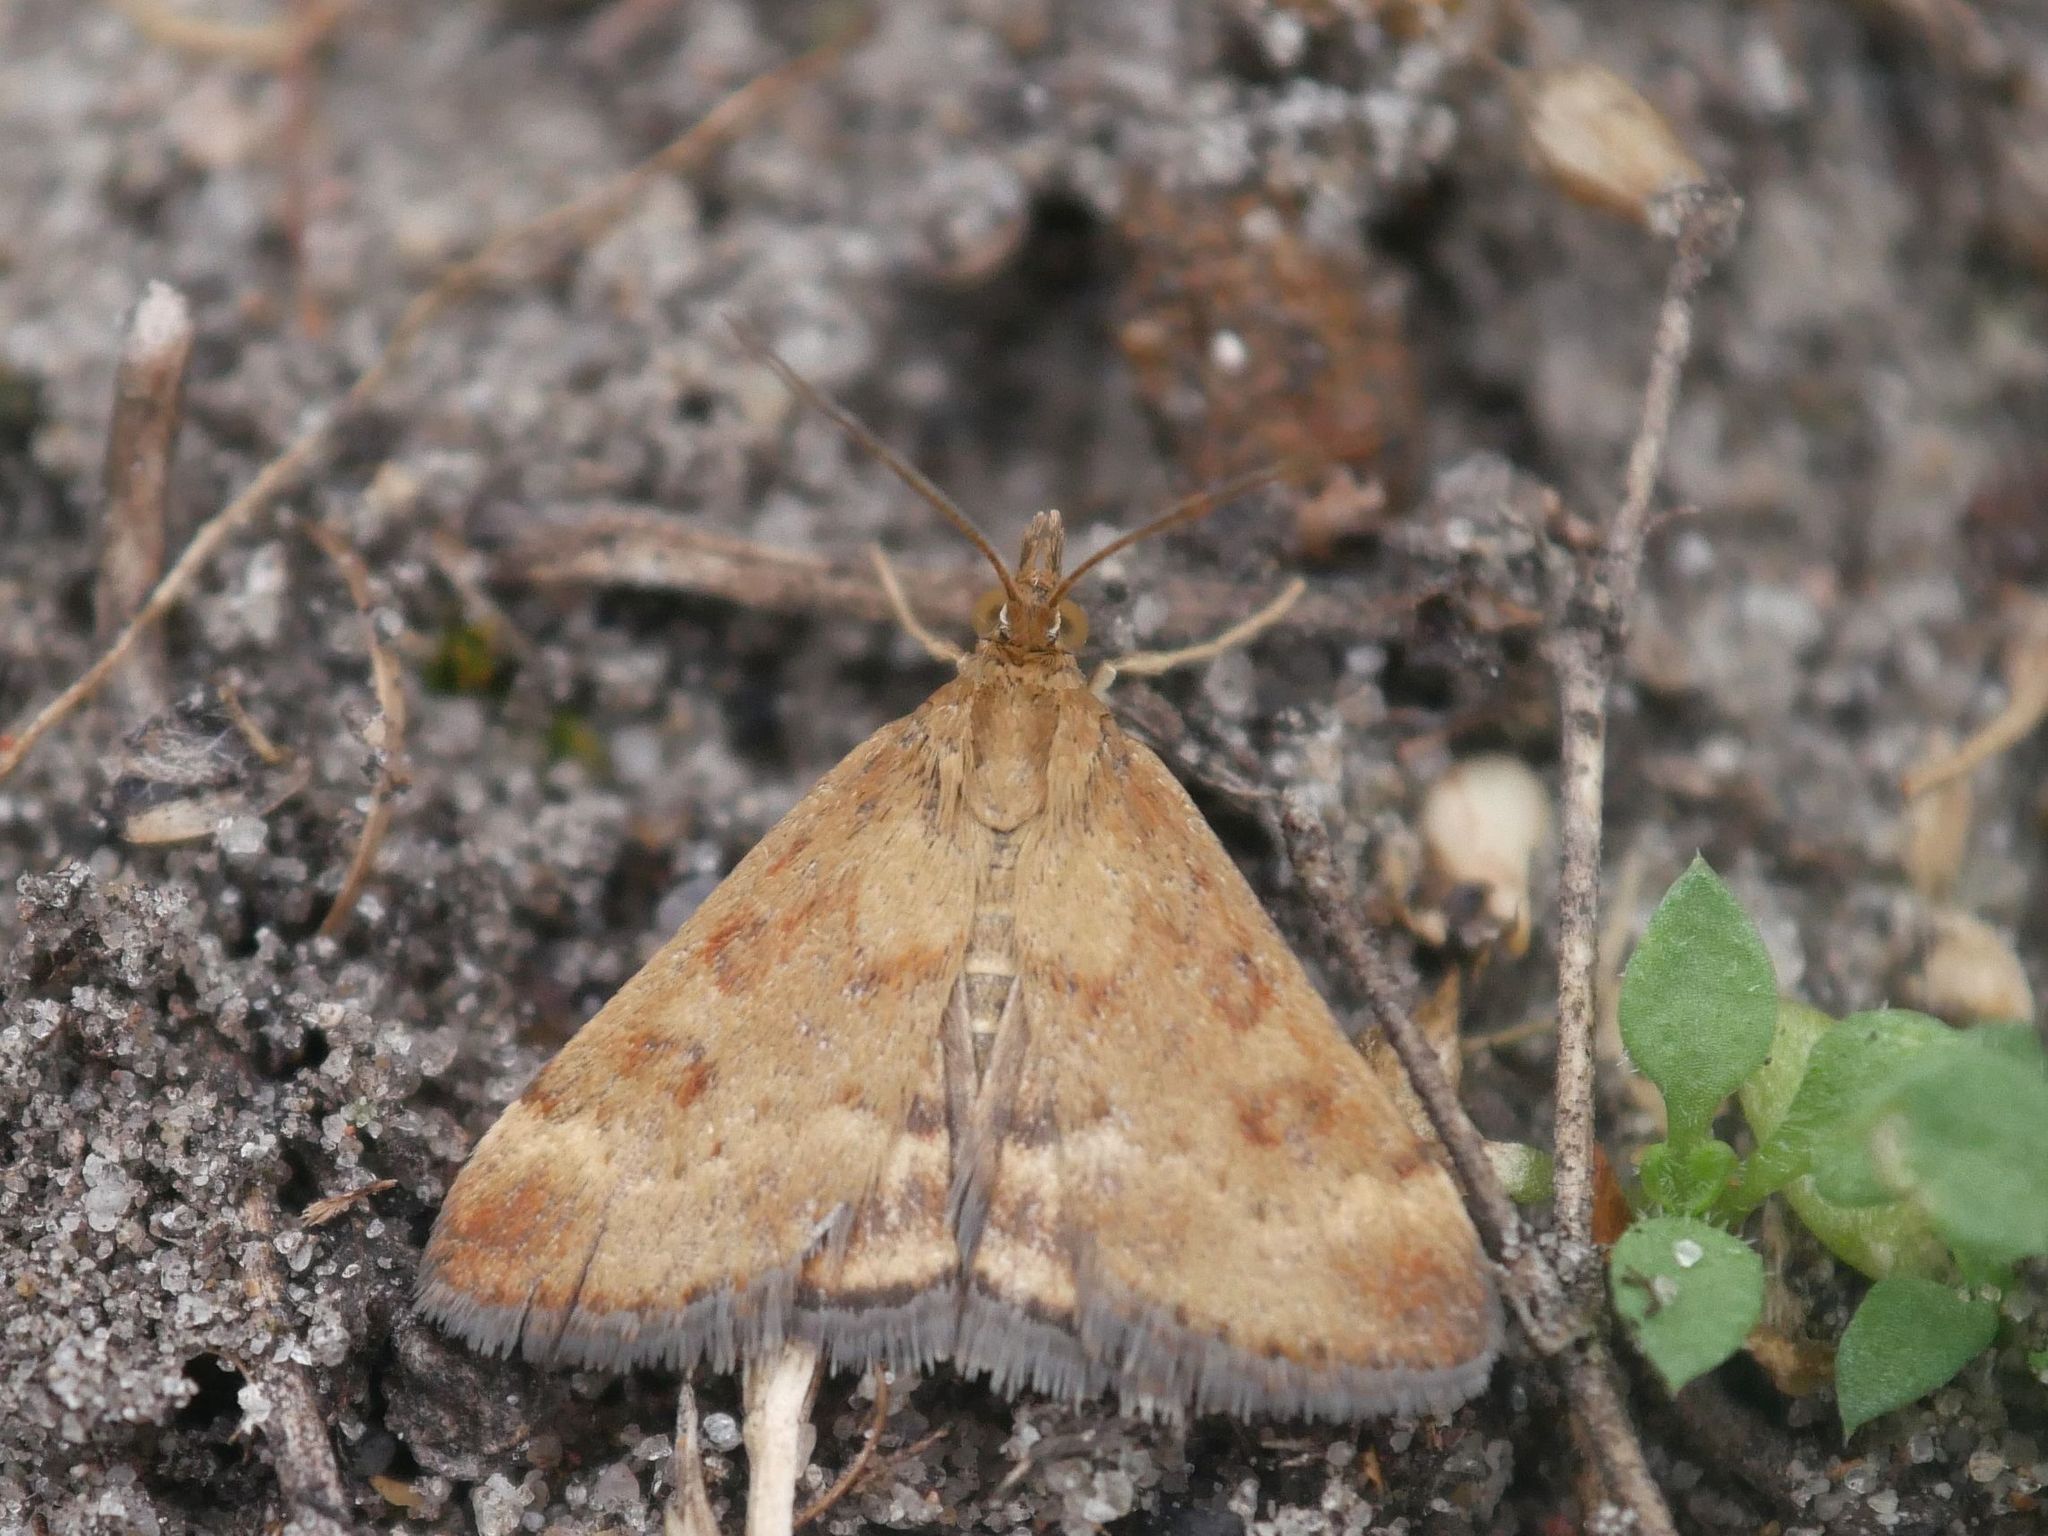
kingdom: Animalia
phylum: Arthropoda
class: Insecta
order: Lepidoptera
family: Crambidae
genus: Pyrausta
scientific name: Pyrausta despicata
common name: Straw-barred pearl
